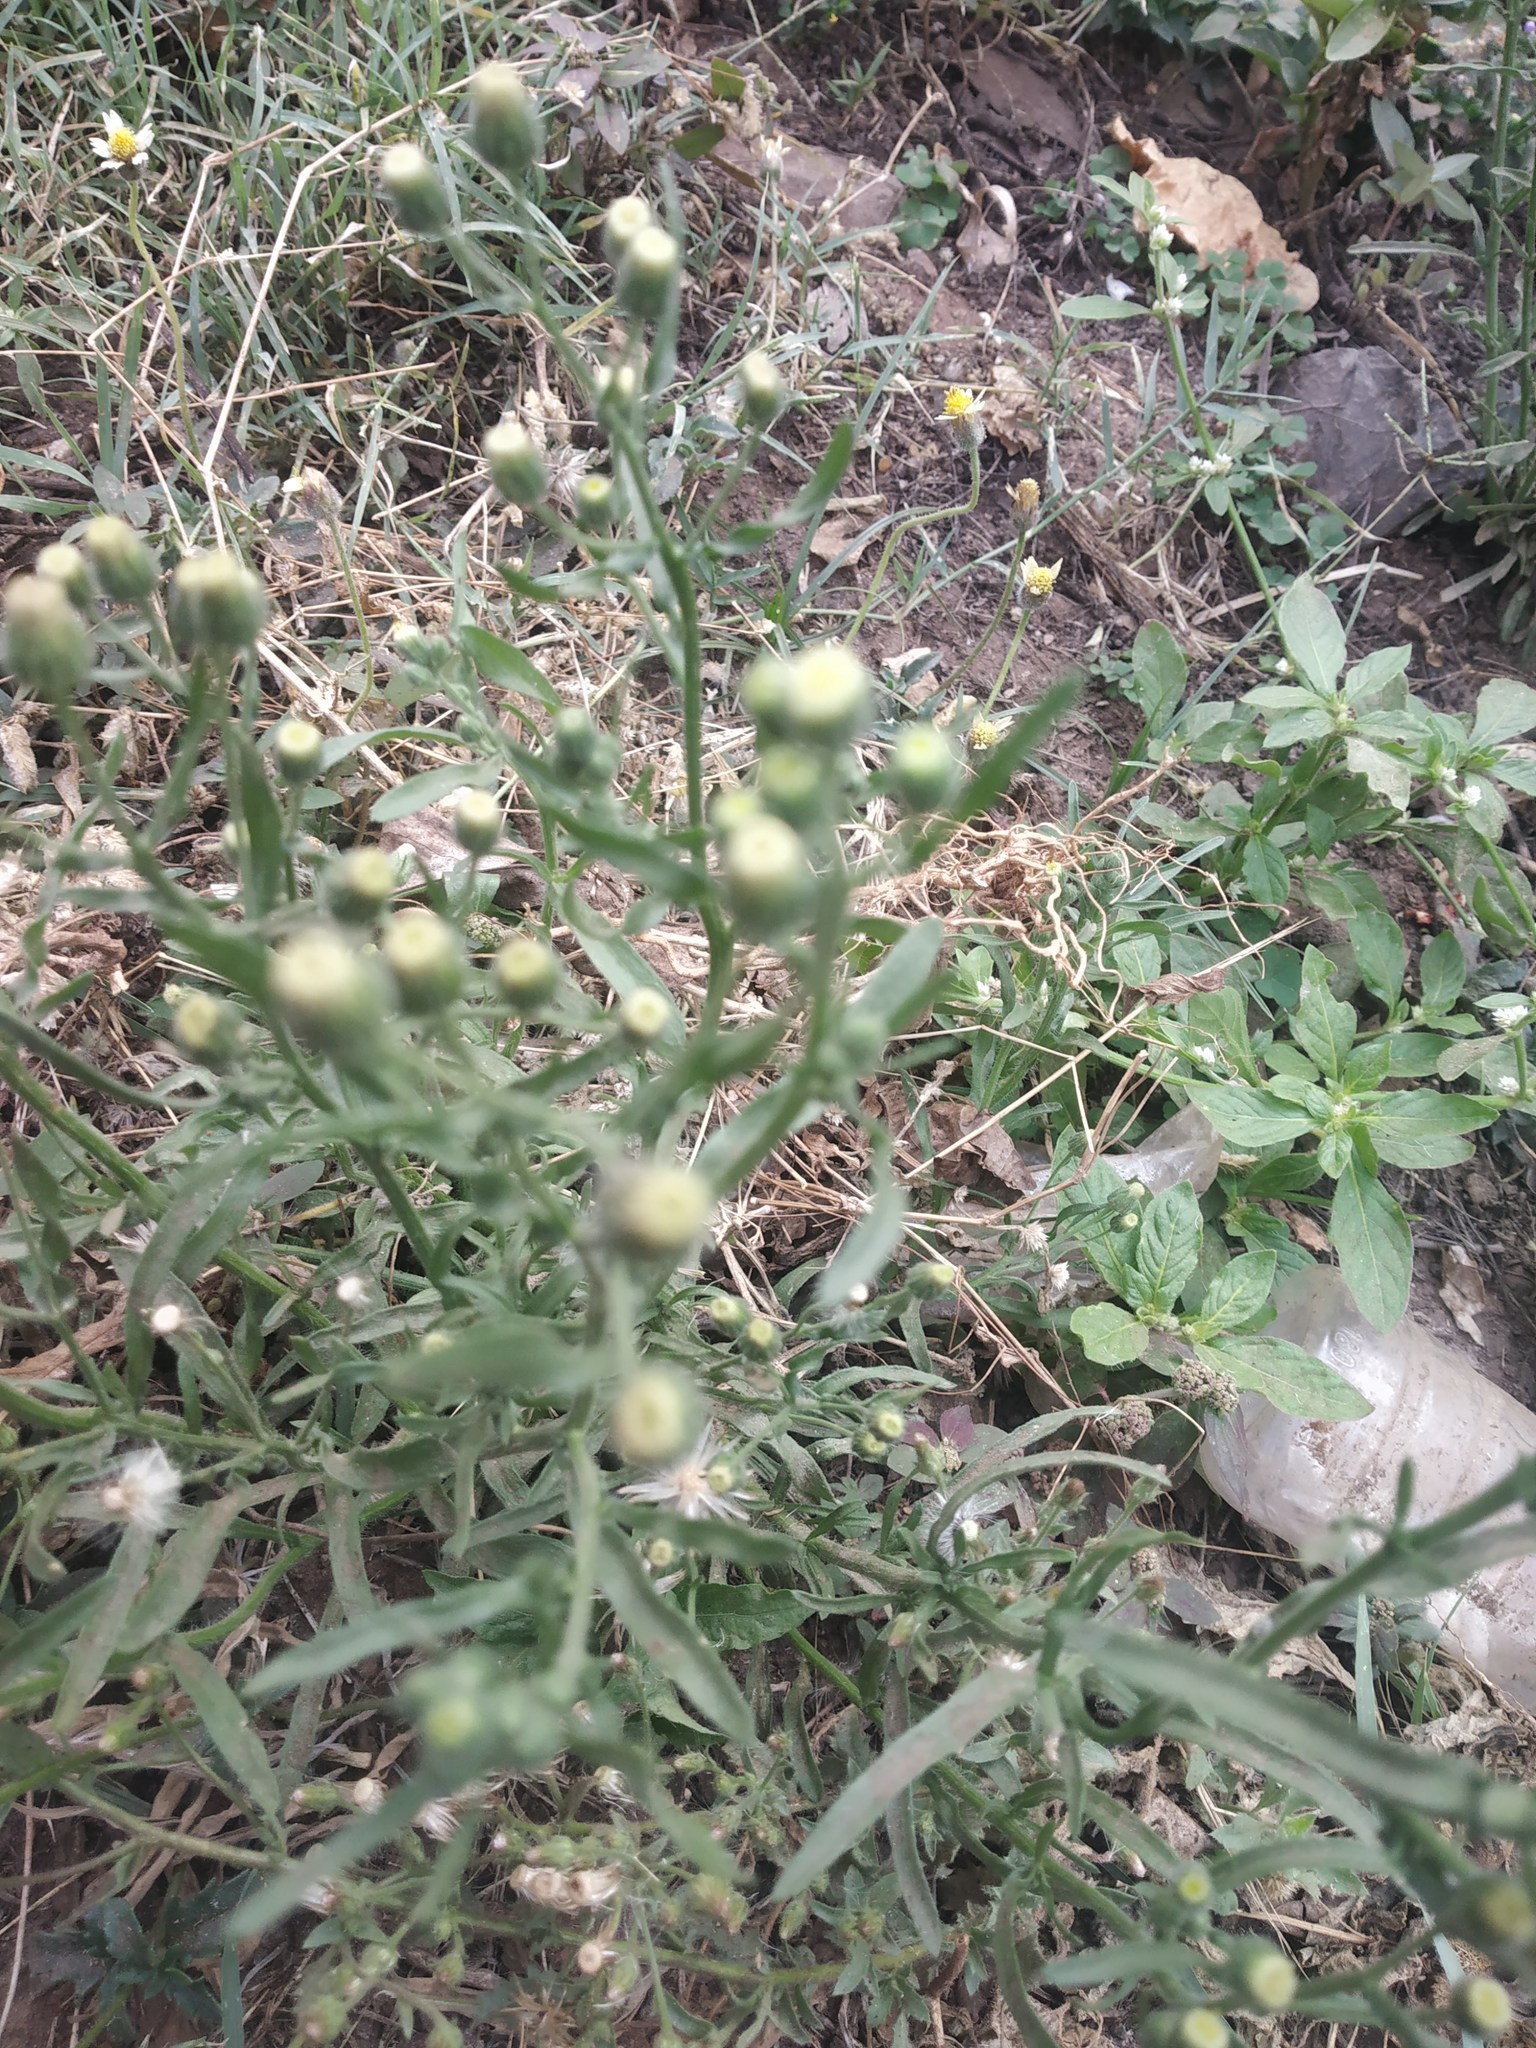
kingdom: Plantae
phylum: Tracheophyta
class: Magnoliopsida
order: Asterales
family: Asteraceae
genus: Erigeron
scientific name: Erigeron bonariensis
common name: Argentine fleabane
